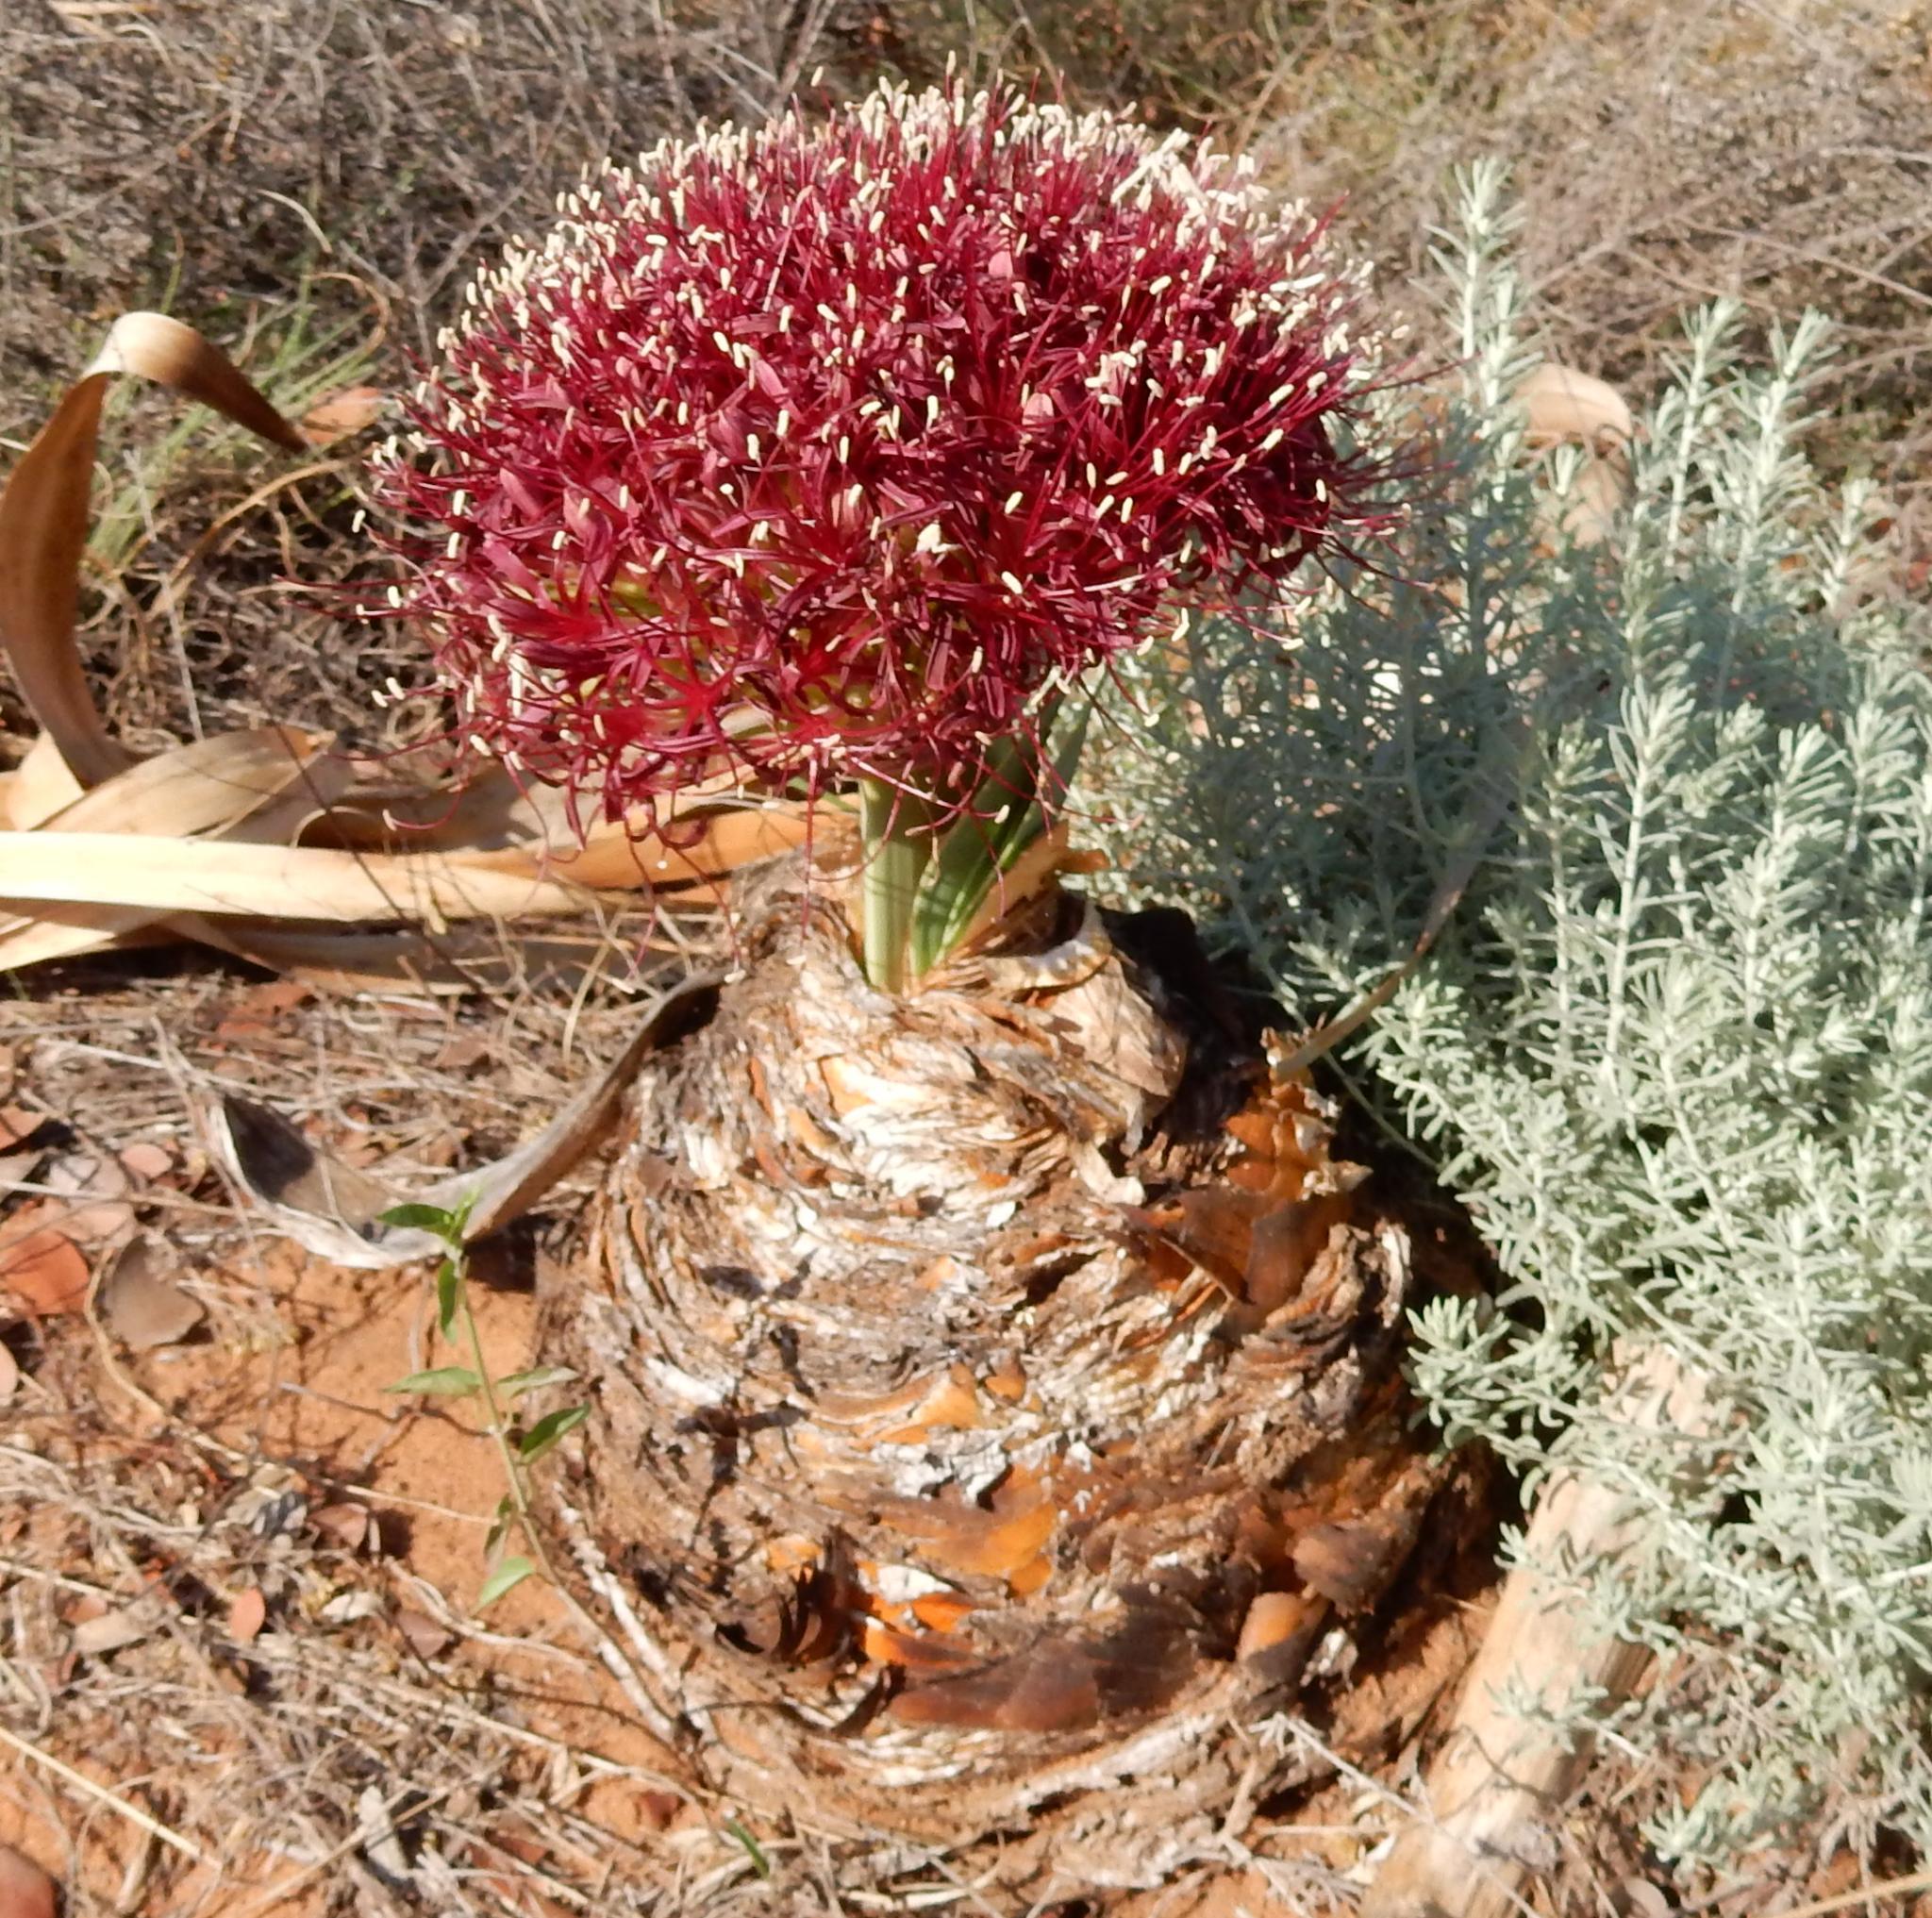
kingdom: Plantae
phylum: Tracheophyta
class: Liliopsida
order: Asparagales
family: Amaryllidaceae
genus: Boophone
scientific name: Boophone disticha
